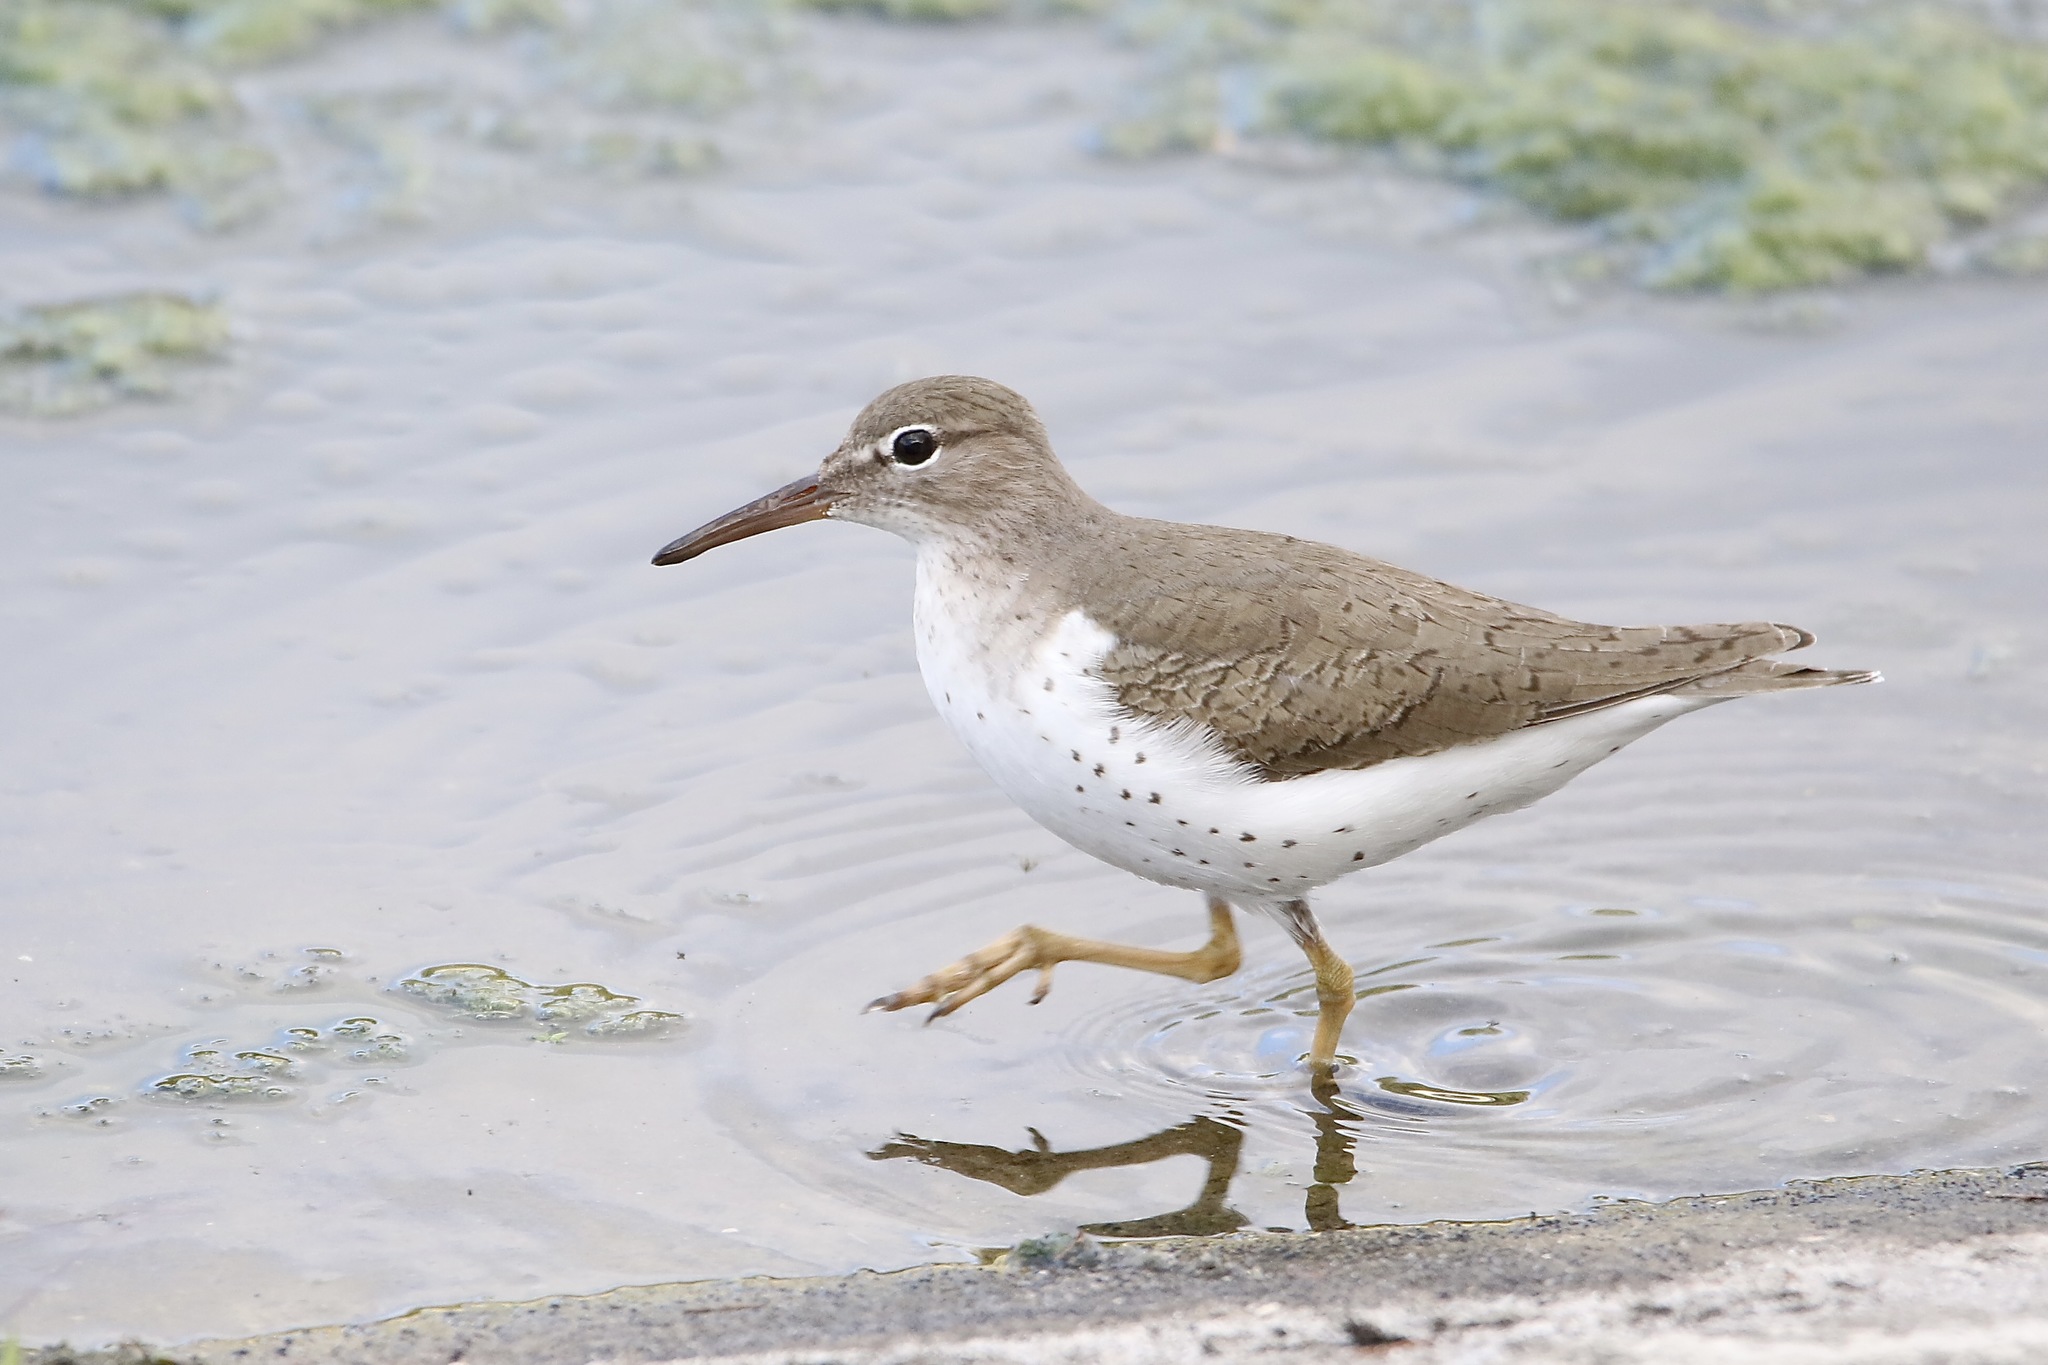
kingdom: Animalia
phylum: Chordata
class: Aves
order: Charadriiformes
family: Scolopacidae
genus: Actitis
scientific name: Actitis macularius
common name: Spotted sandpiper
